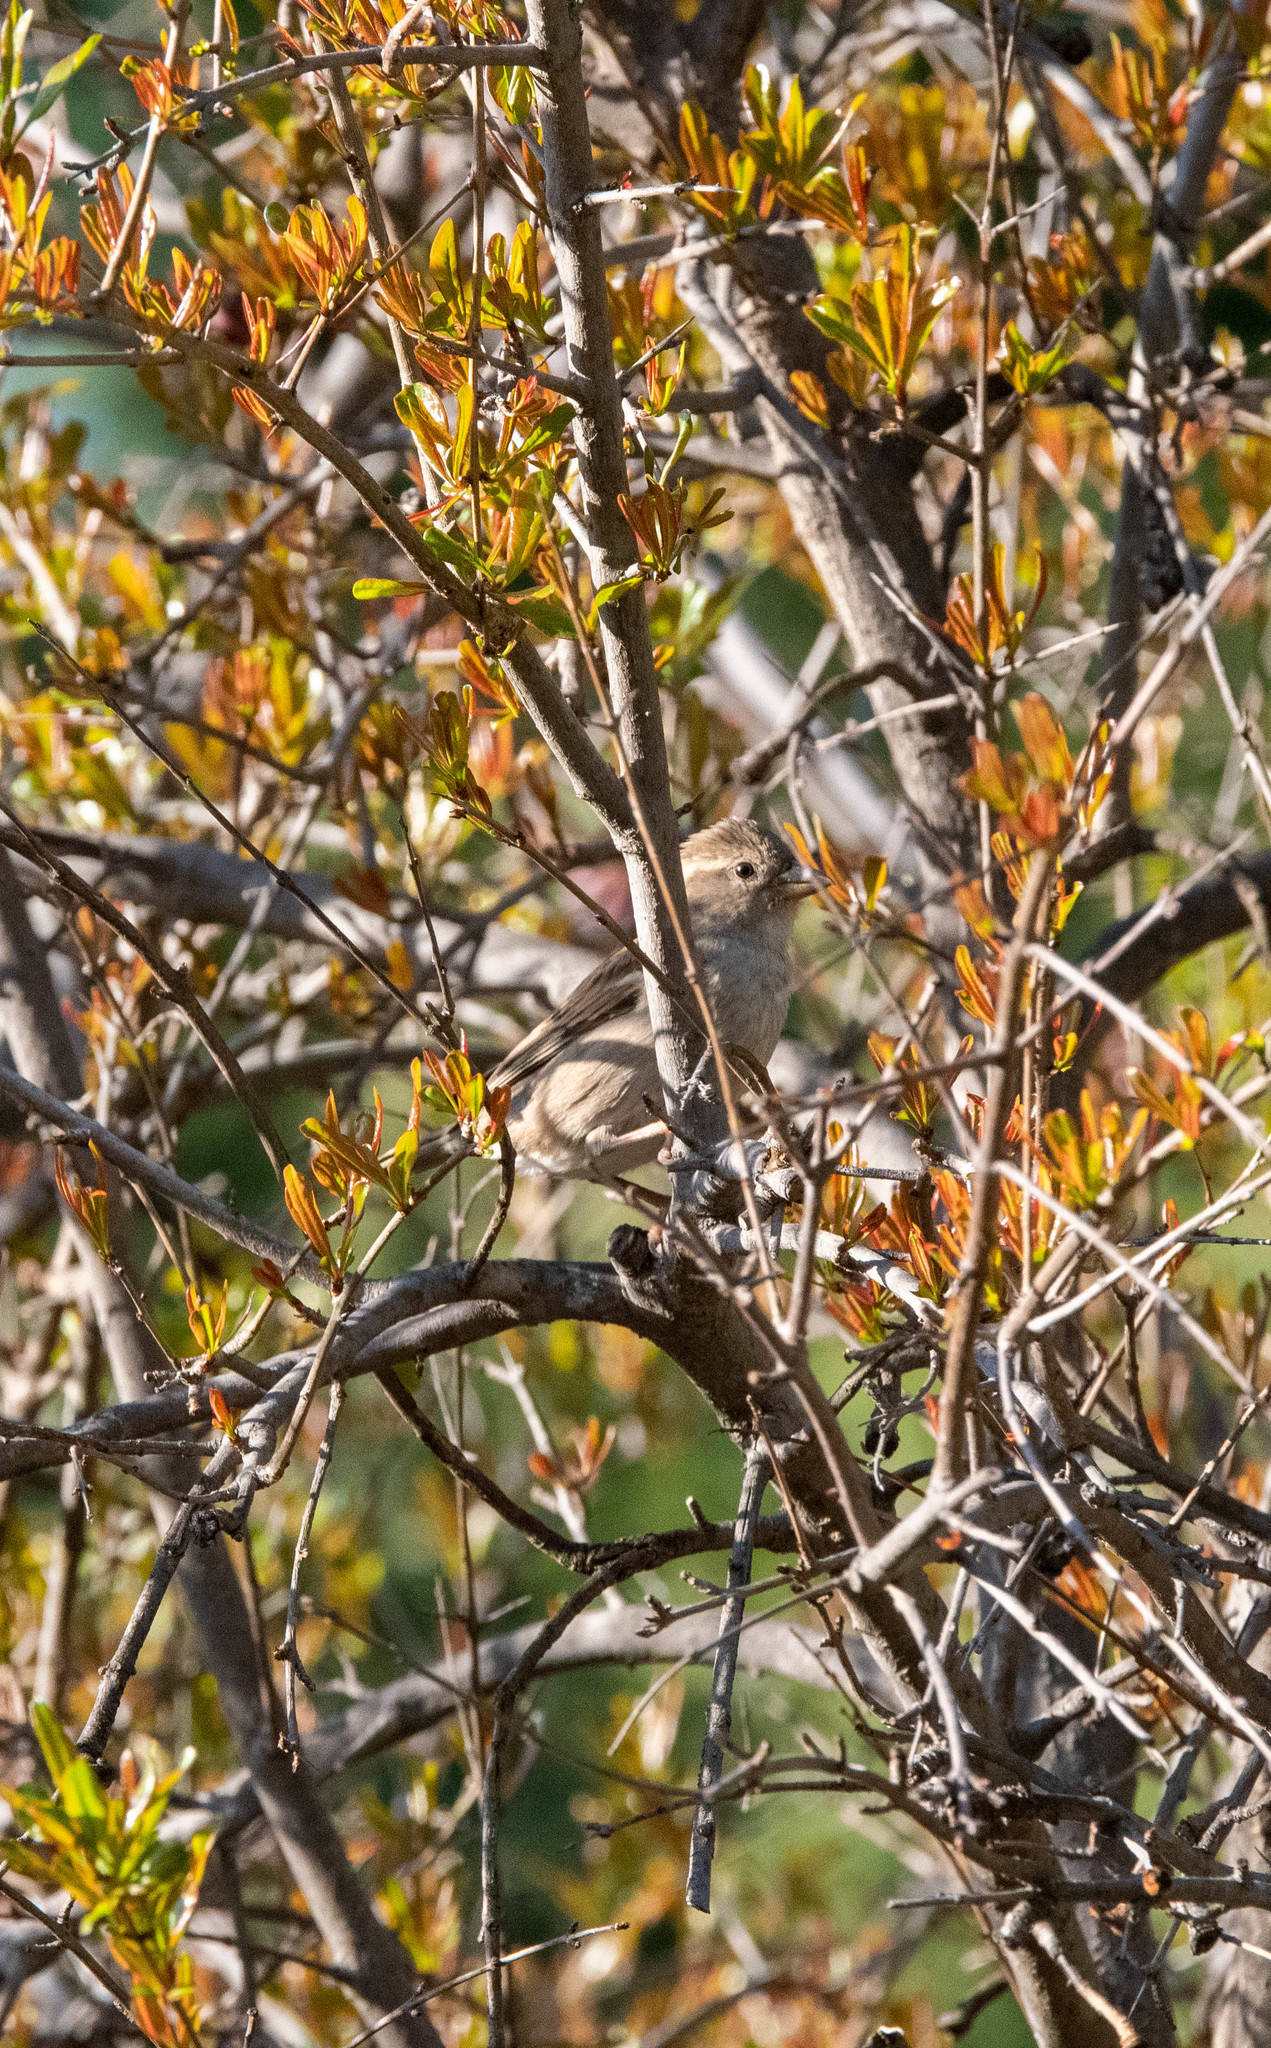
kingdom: Animalia
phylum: Chordata
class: Aves
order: Passeriformes
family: Passeridae
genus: Passer
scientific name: Passer domesticus
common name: House sparrow
